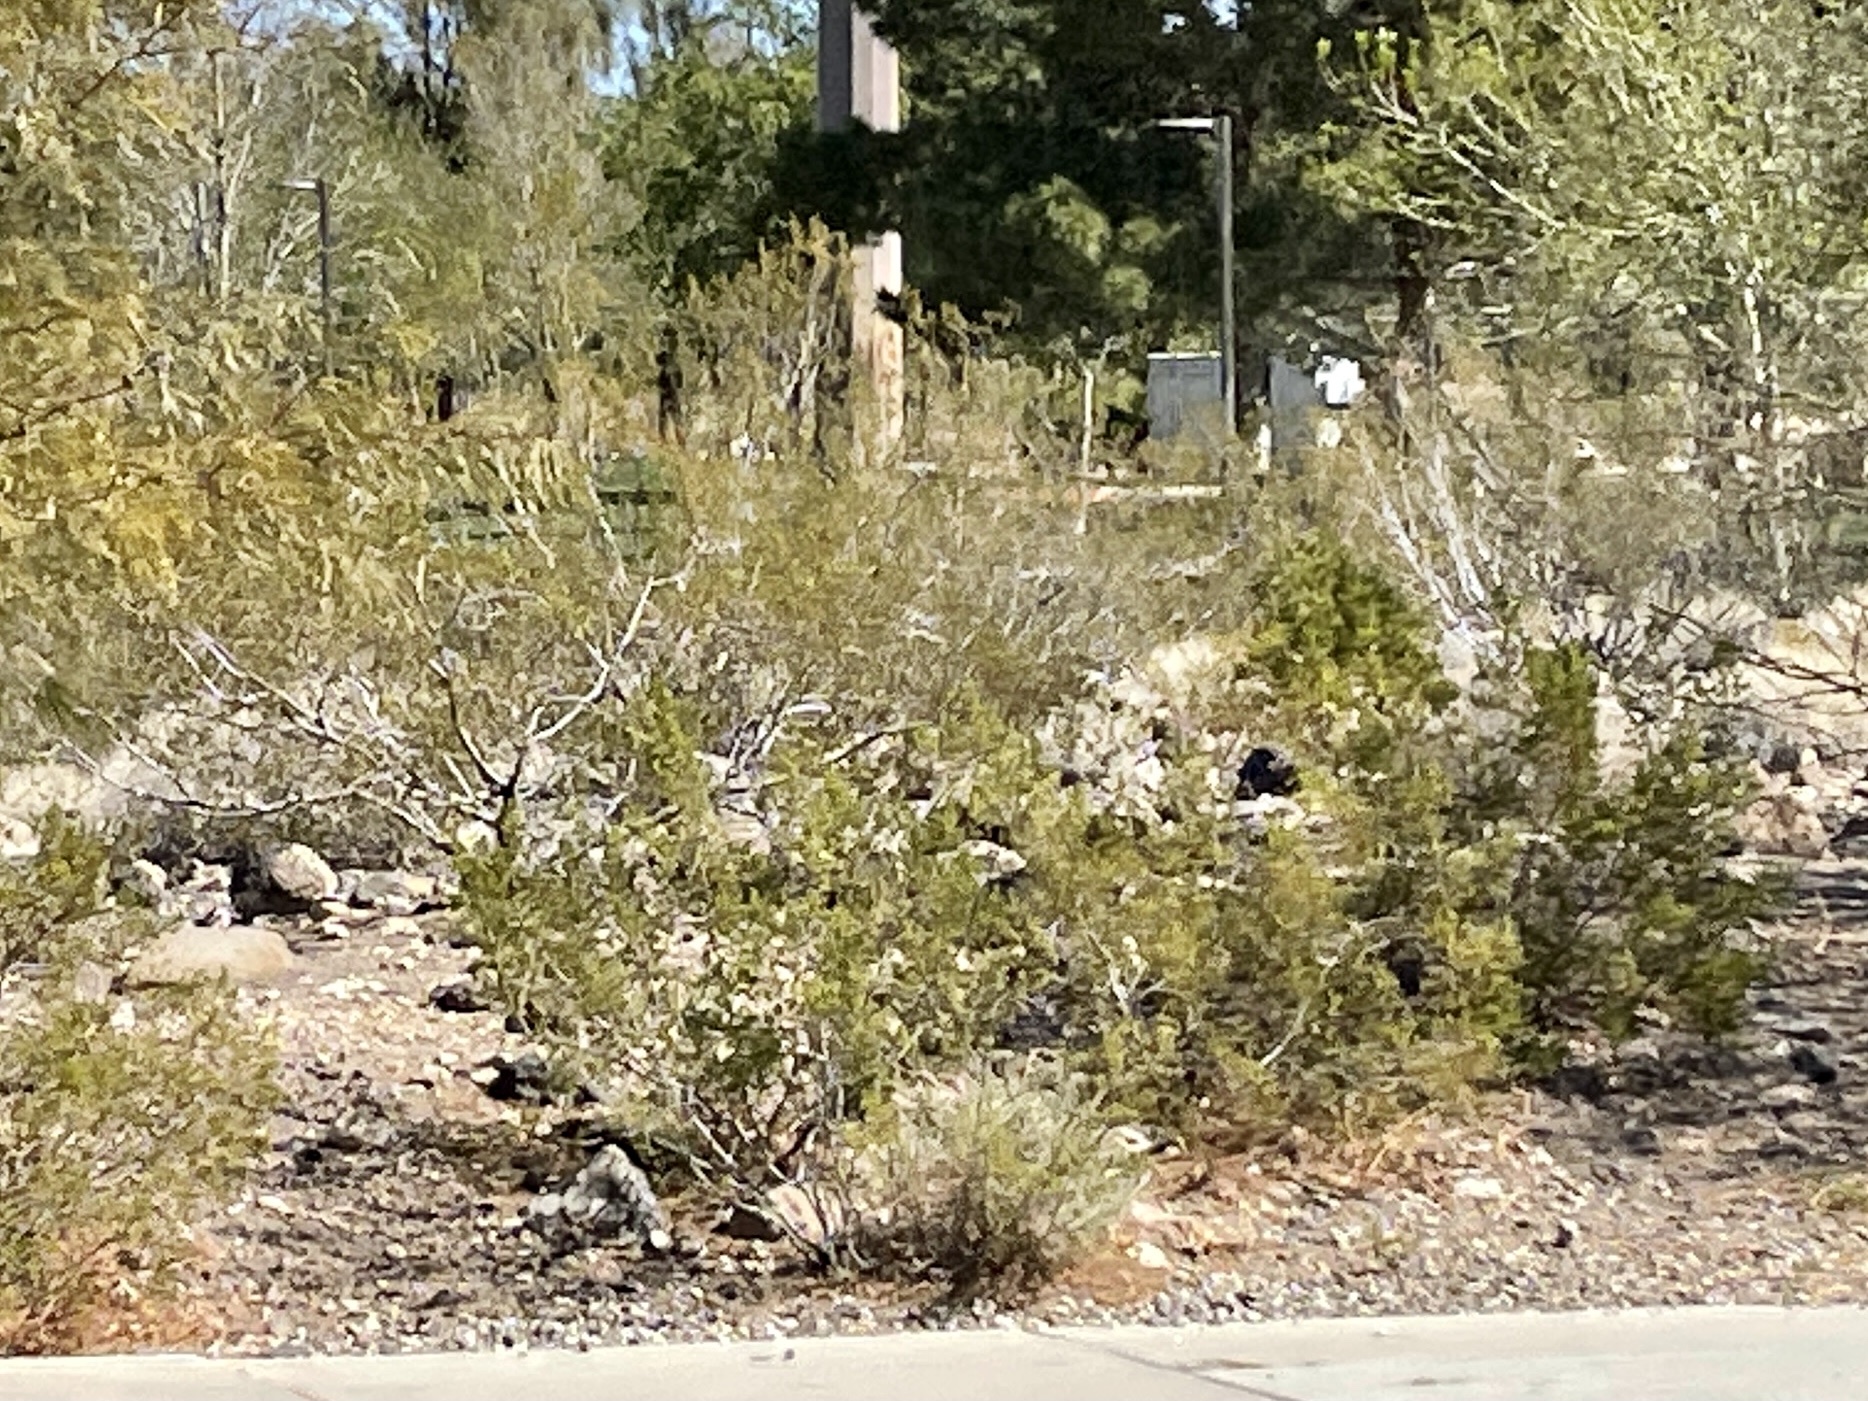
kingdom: Plantae
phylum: Tracheophyta
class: Magnoliopsida
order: Zygophyllales
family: Zygophyllaceae
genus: Larrea
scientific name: Larrea tridentata
